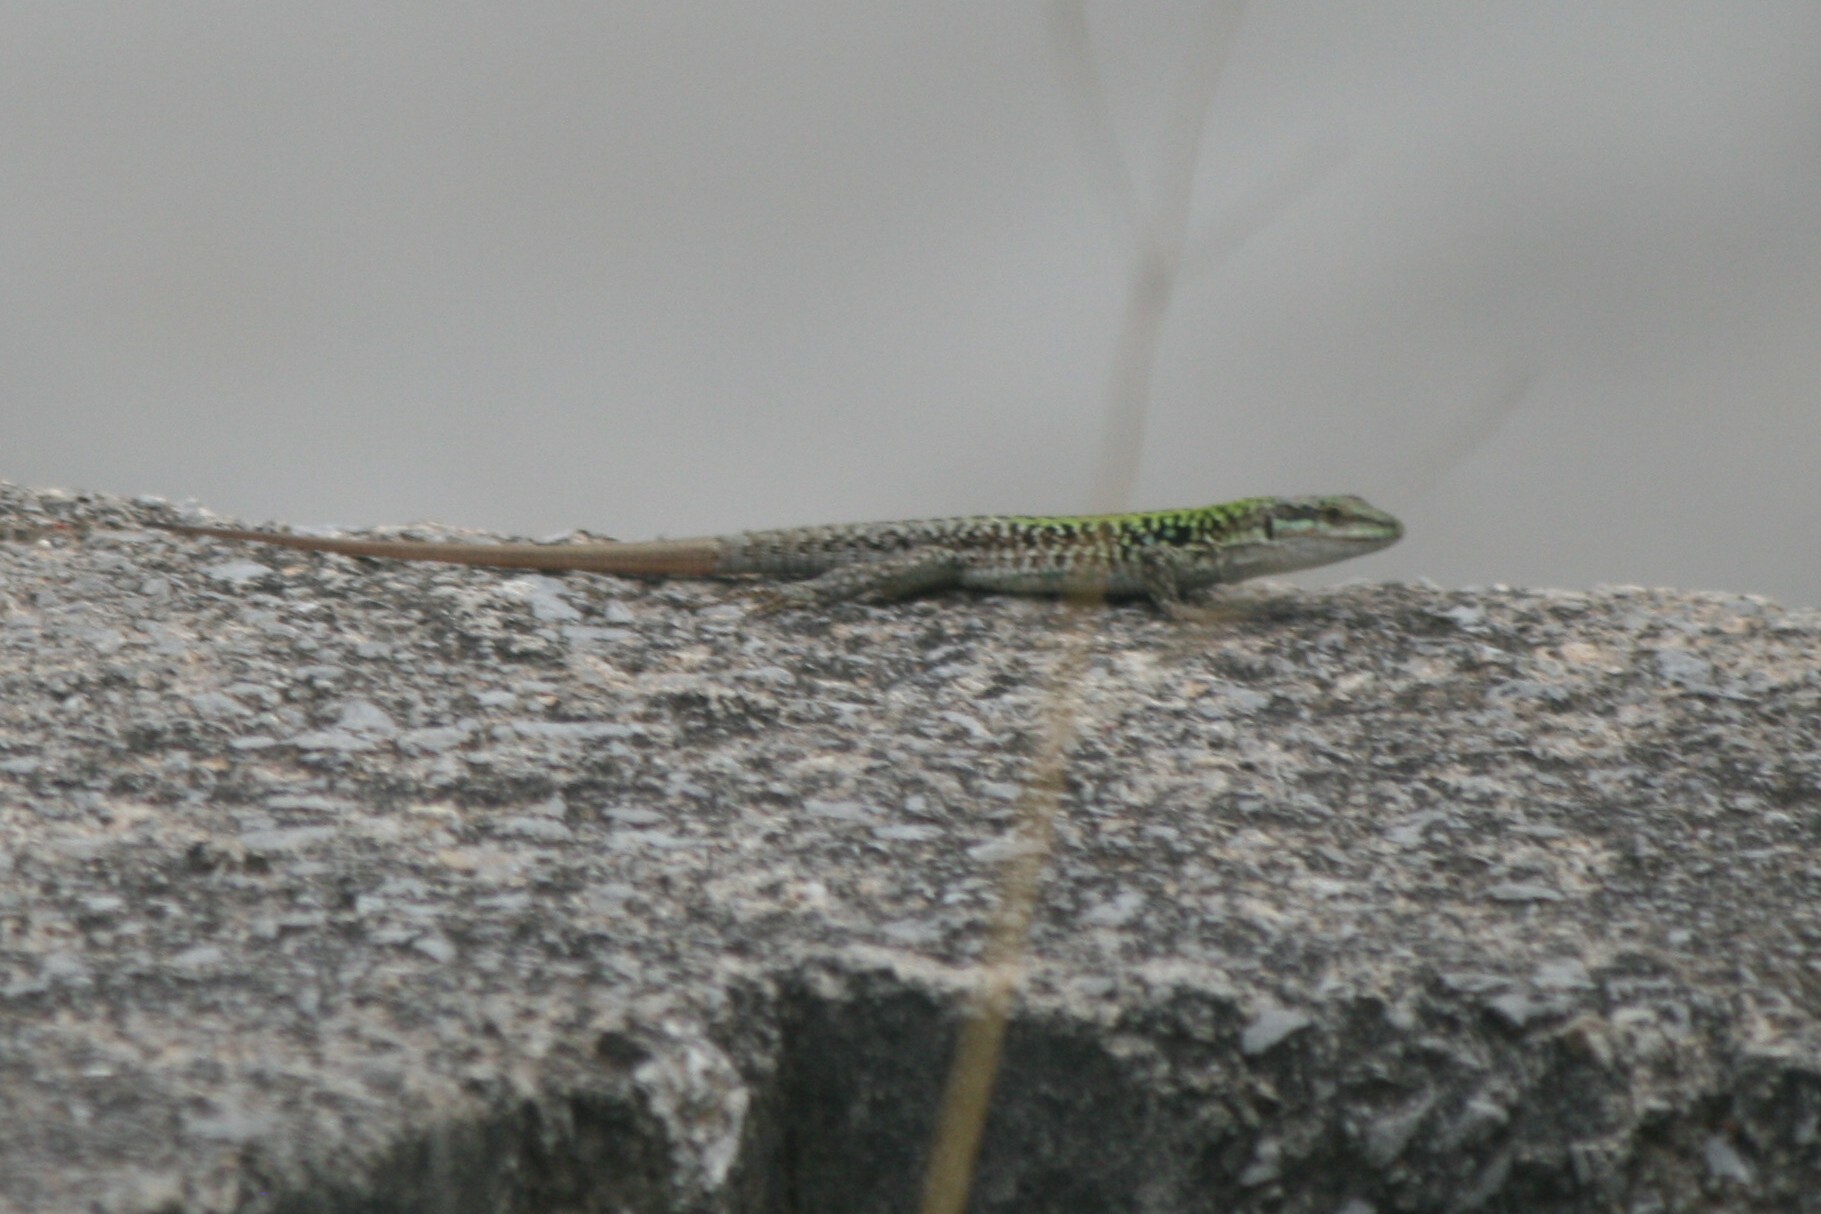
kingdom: Animalia
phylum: Chordata
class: Squamata
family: Lacertidae
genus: Podarcis
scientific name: Podarcis siculus
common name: Italian wall lizard
